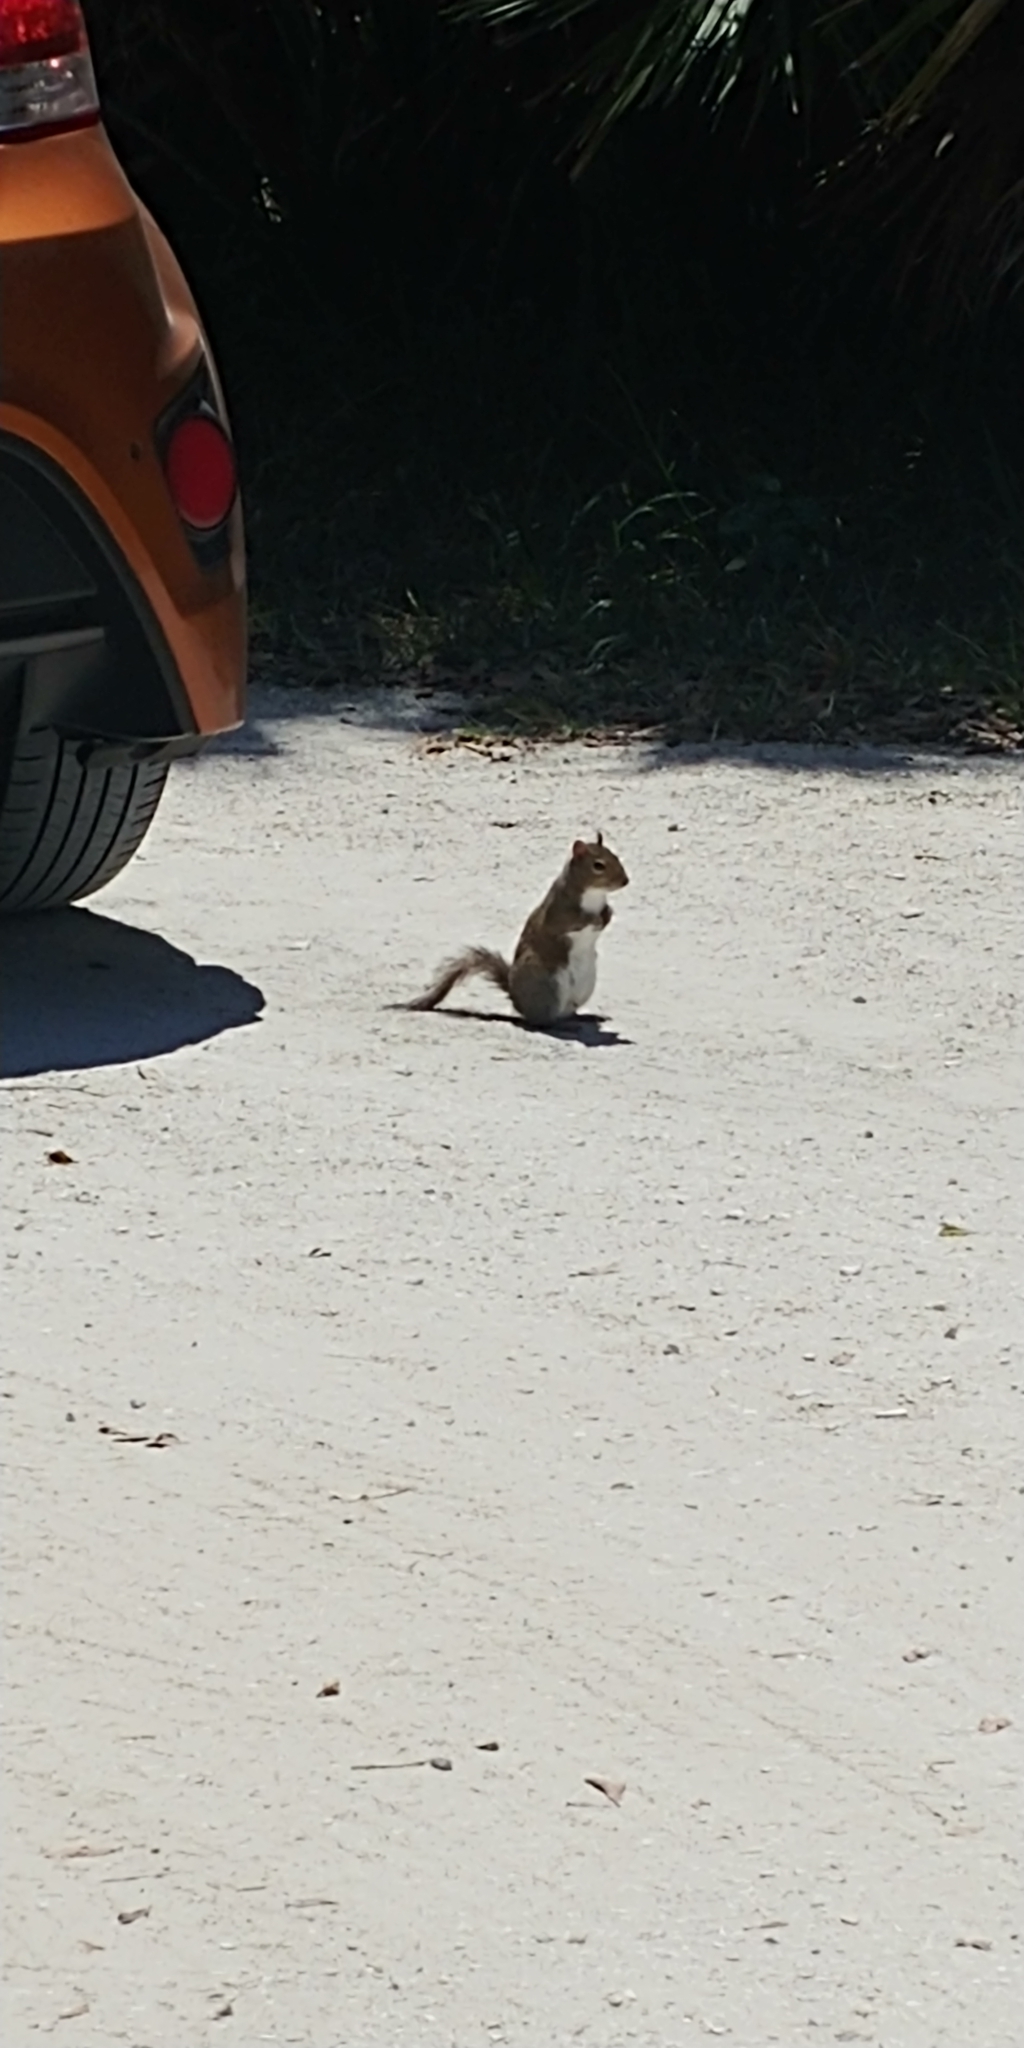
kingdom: Animalia
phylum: Chordata
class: Mammalia
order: Rodentia
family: Sciuridae
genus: Sciurus
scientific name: Sciurus carolinensis
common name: Eastern gray squirrel
